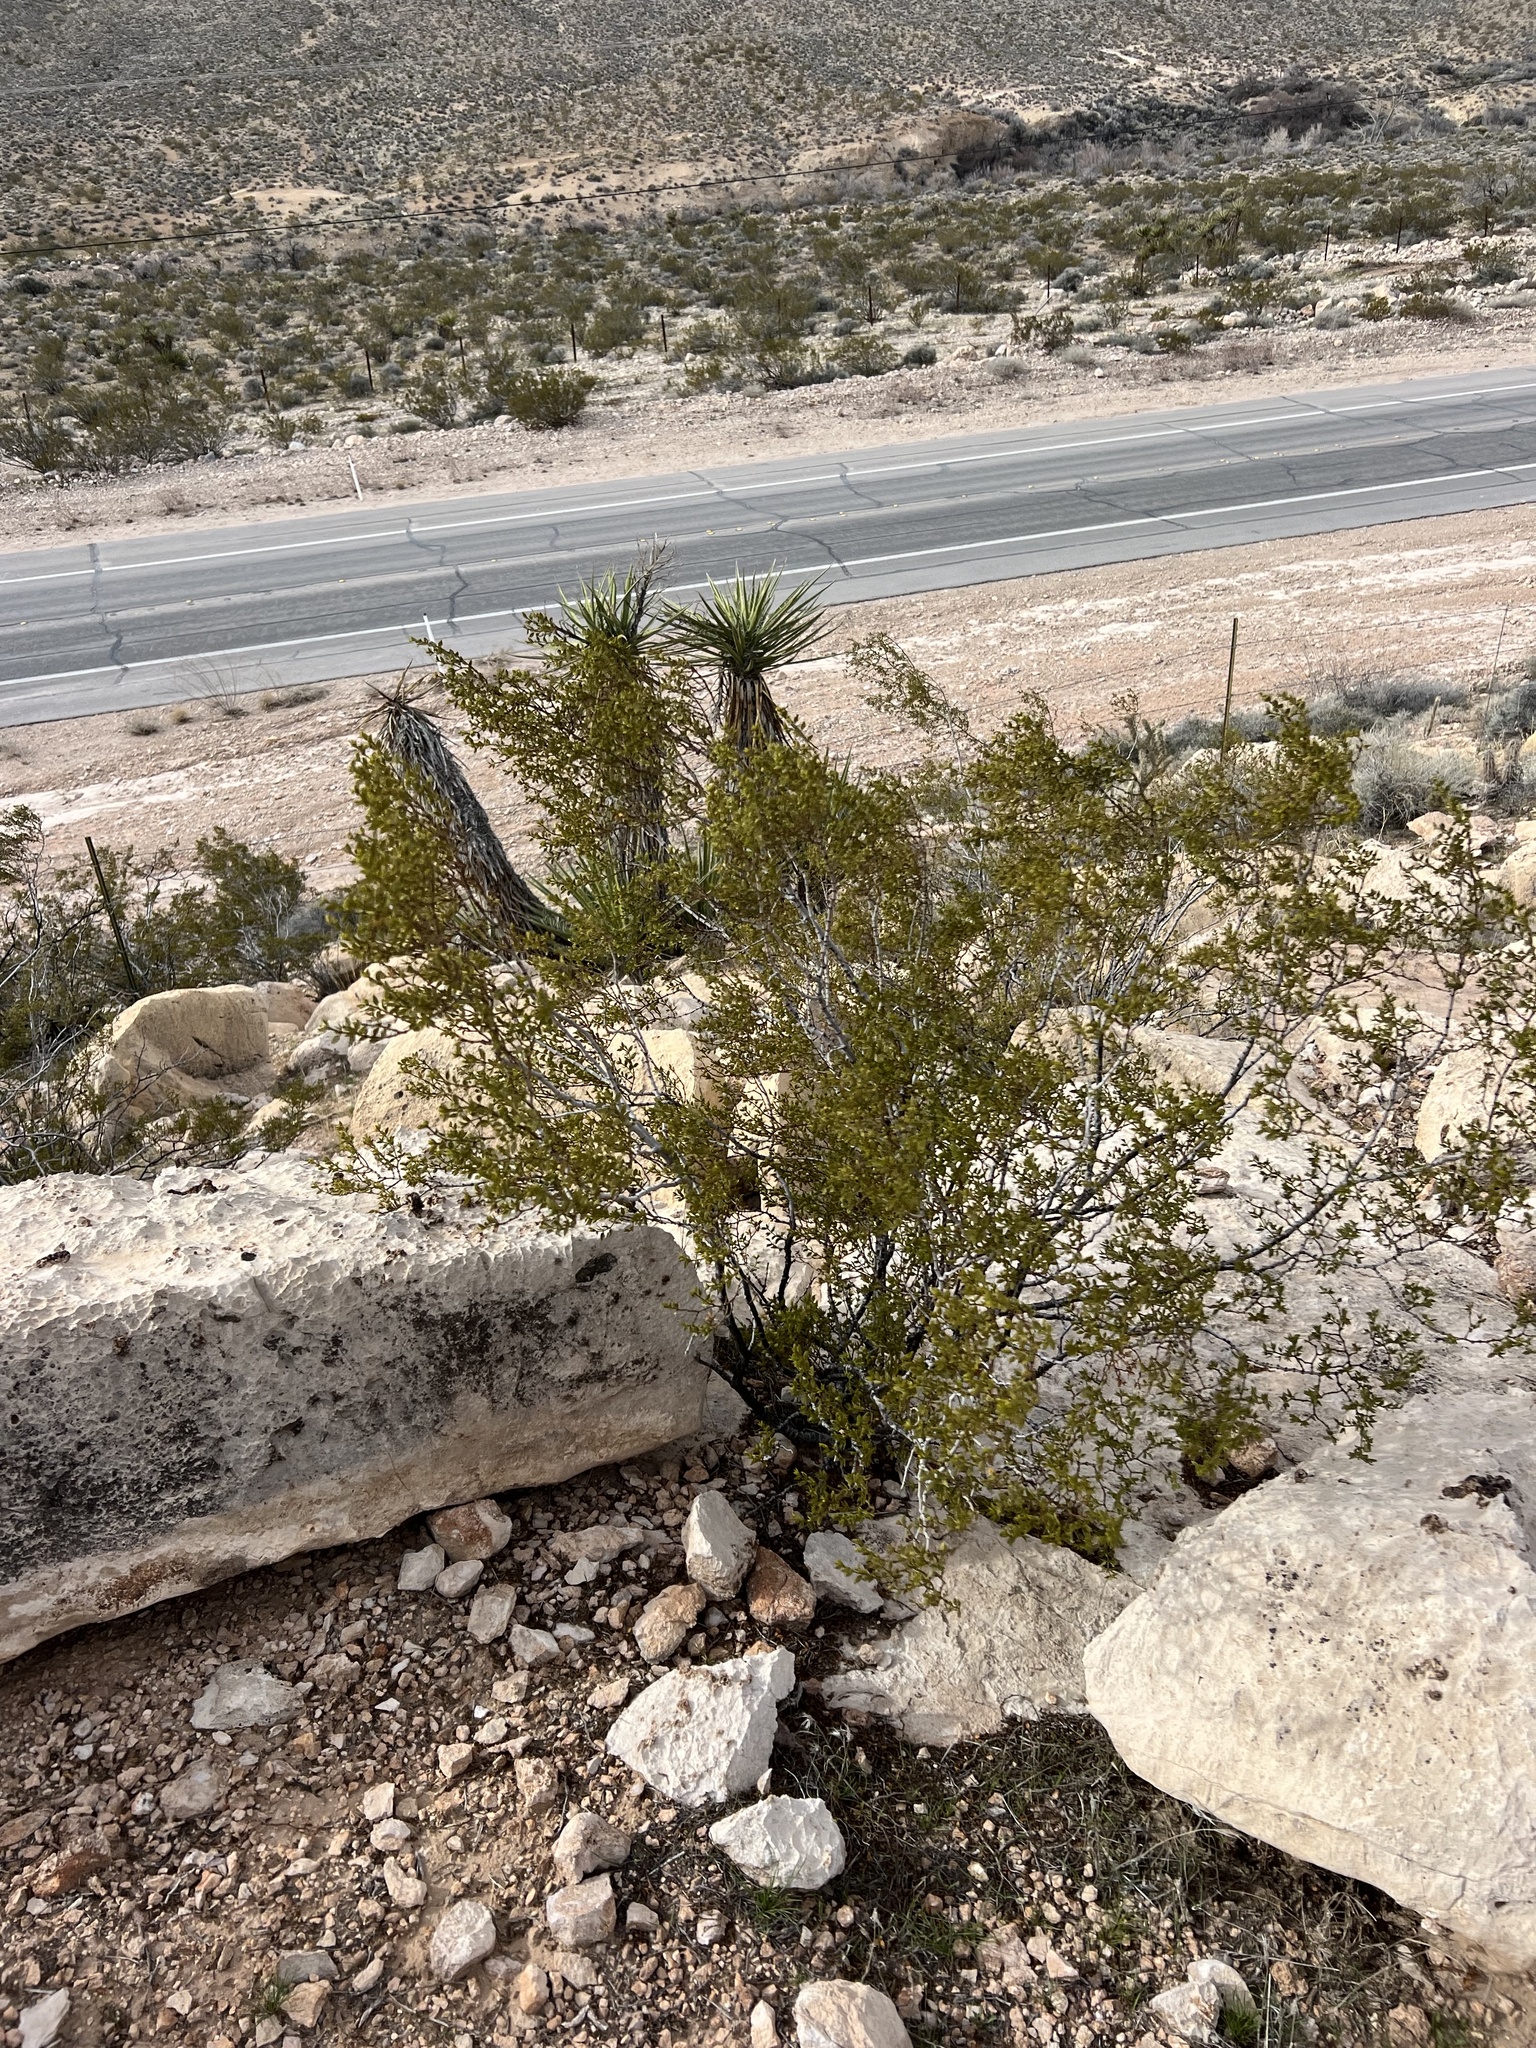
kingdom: Plantae
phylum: Tracheophyta
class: Magnoliopsida
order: Zygophyllales
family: Zygophyllaceae
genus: Larrea
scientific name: Larrea tridentata
